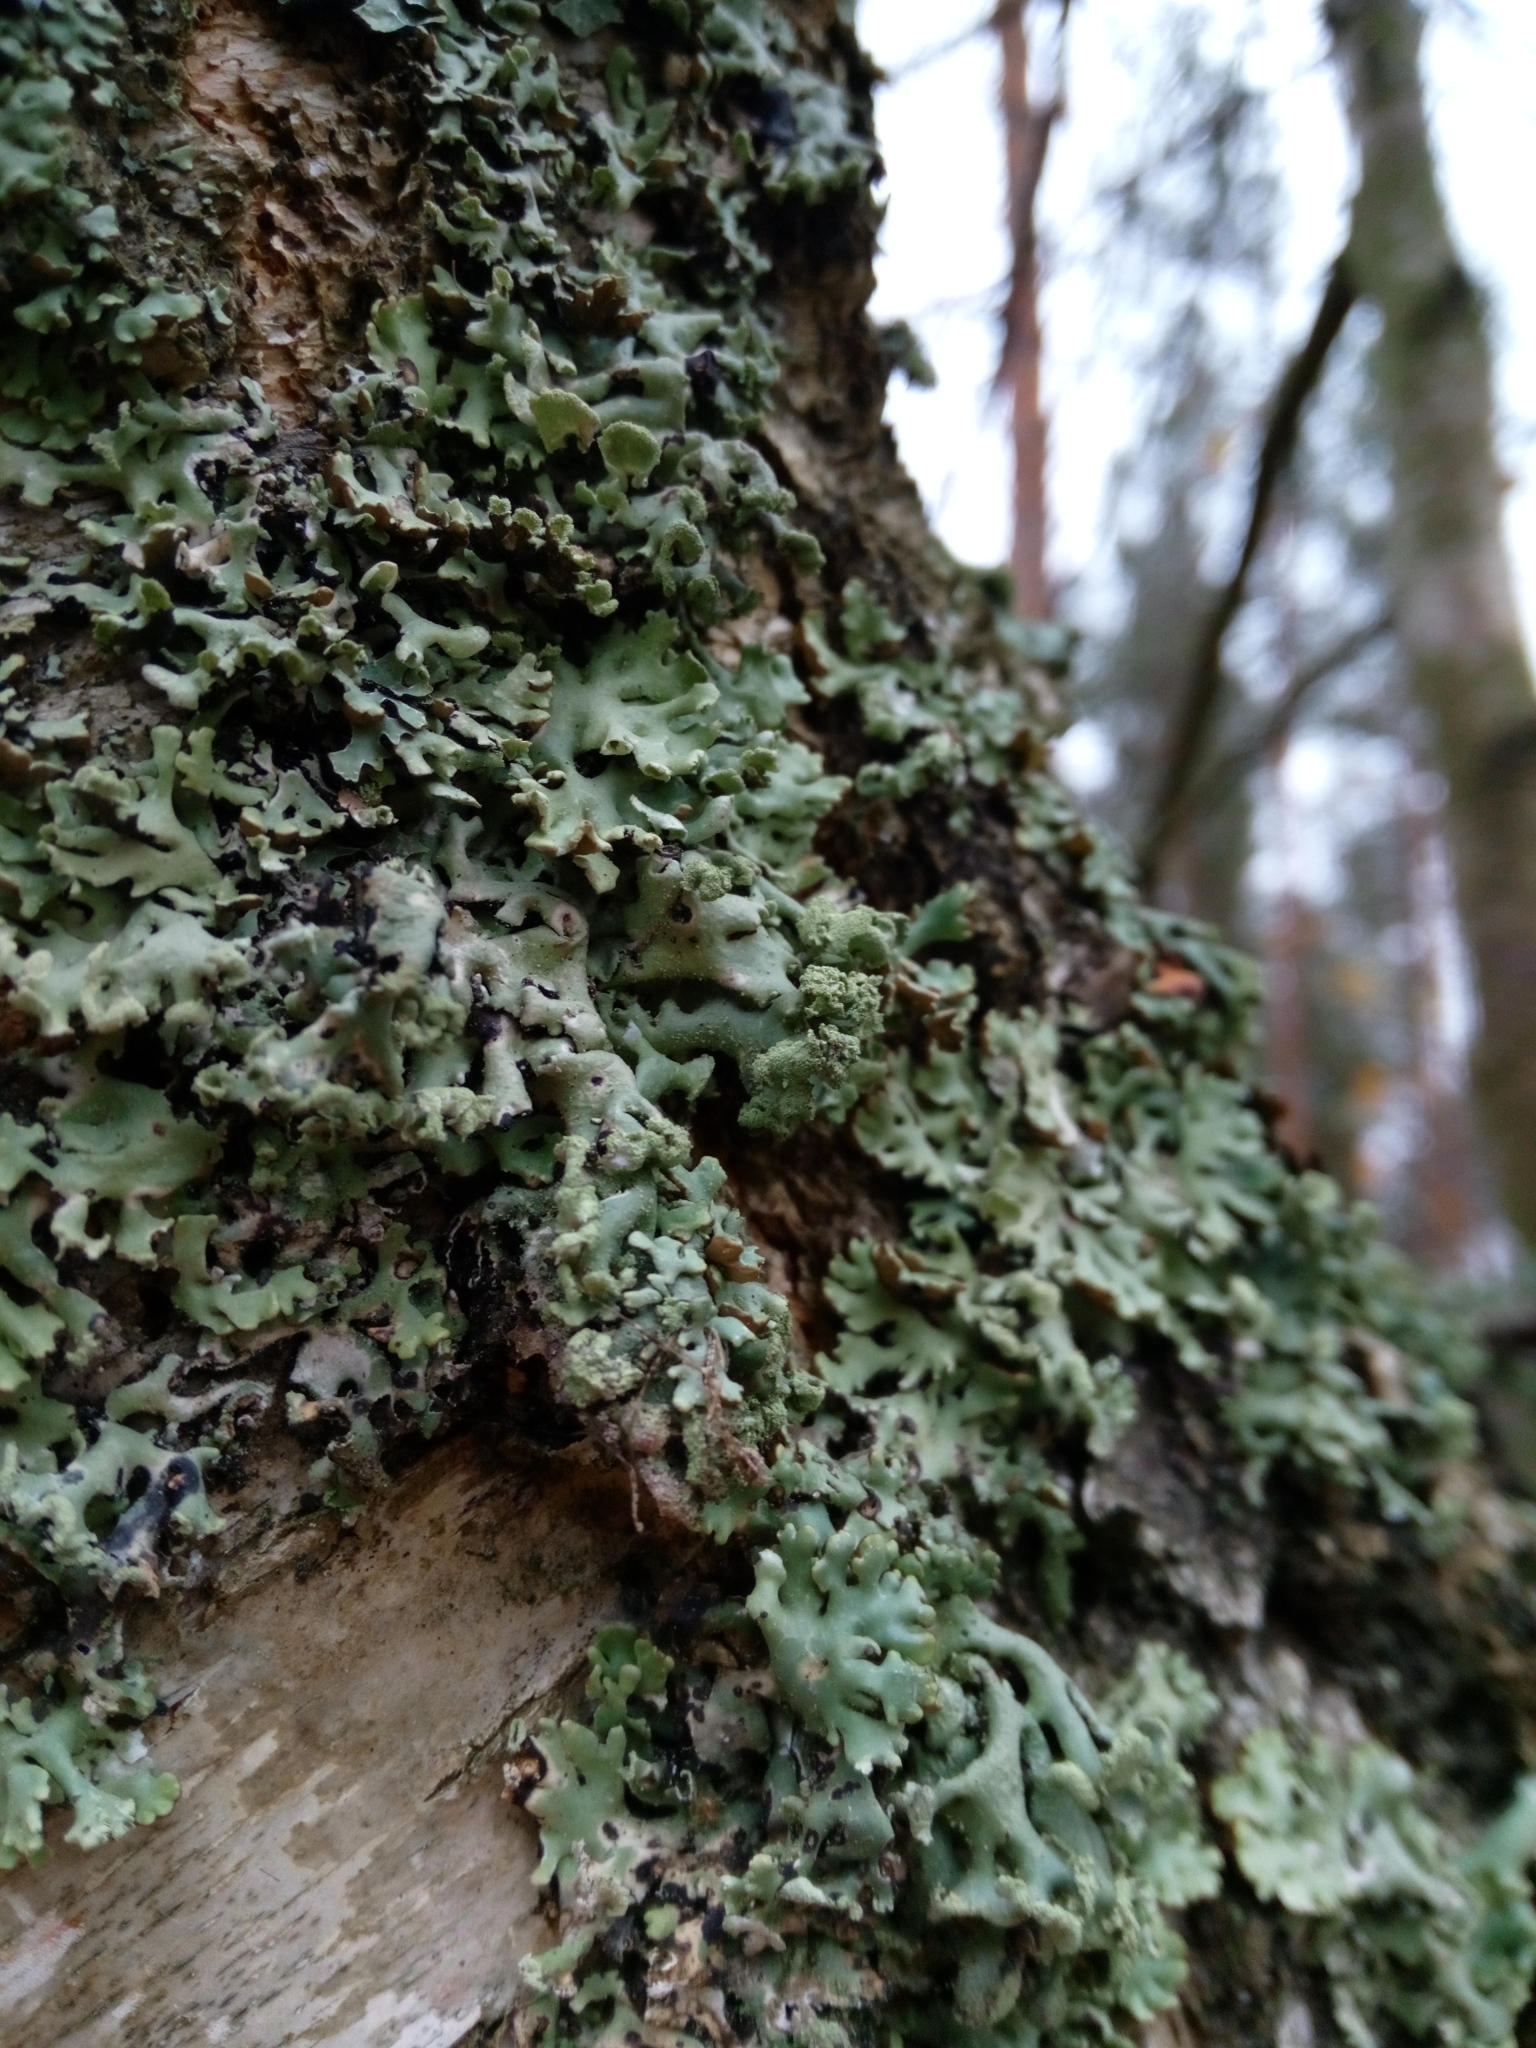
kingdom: Fungi
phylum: Ascomycota
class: Lecanoromycetes
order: Lecanorales
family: Parmeliaceae
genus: Hypogymnia
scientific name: Hypogymnia physodes
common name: Dark crottle
